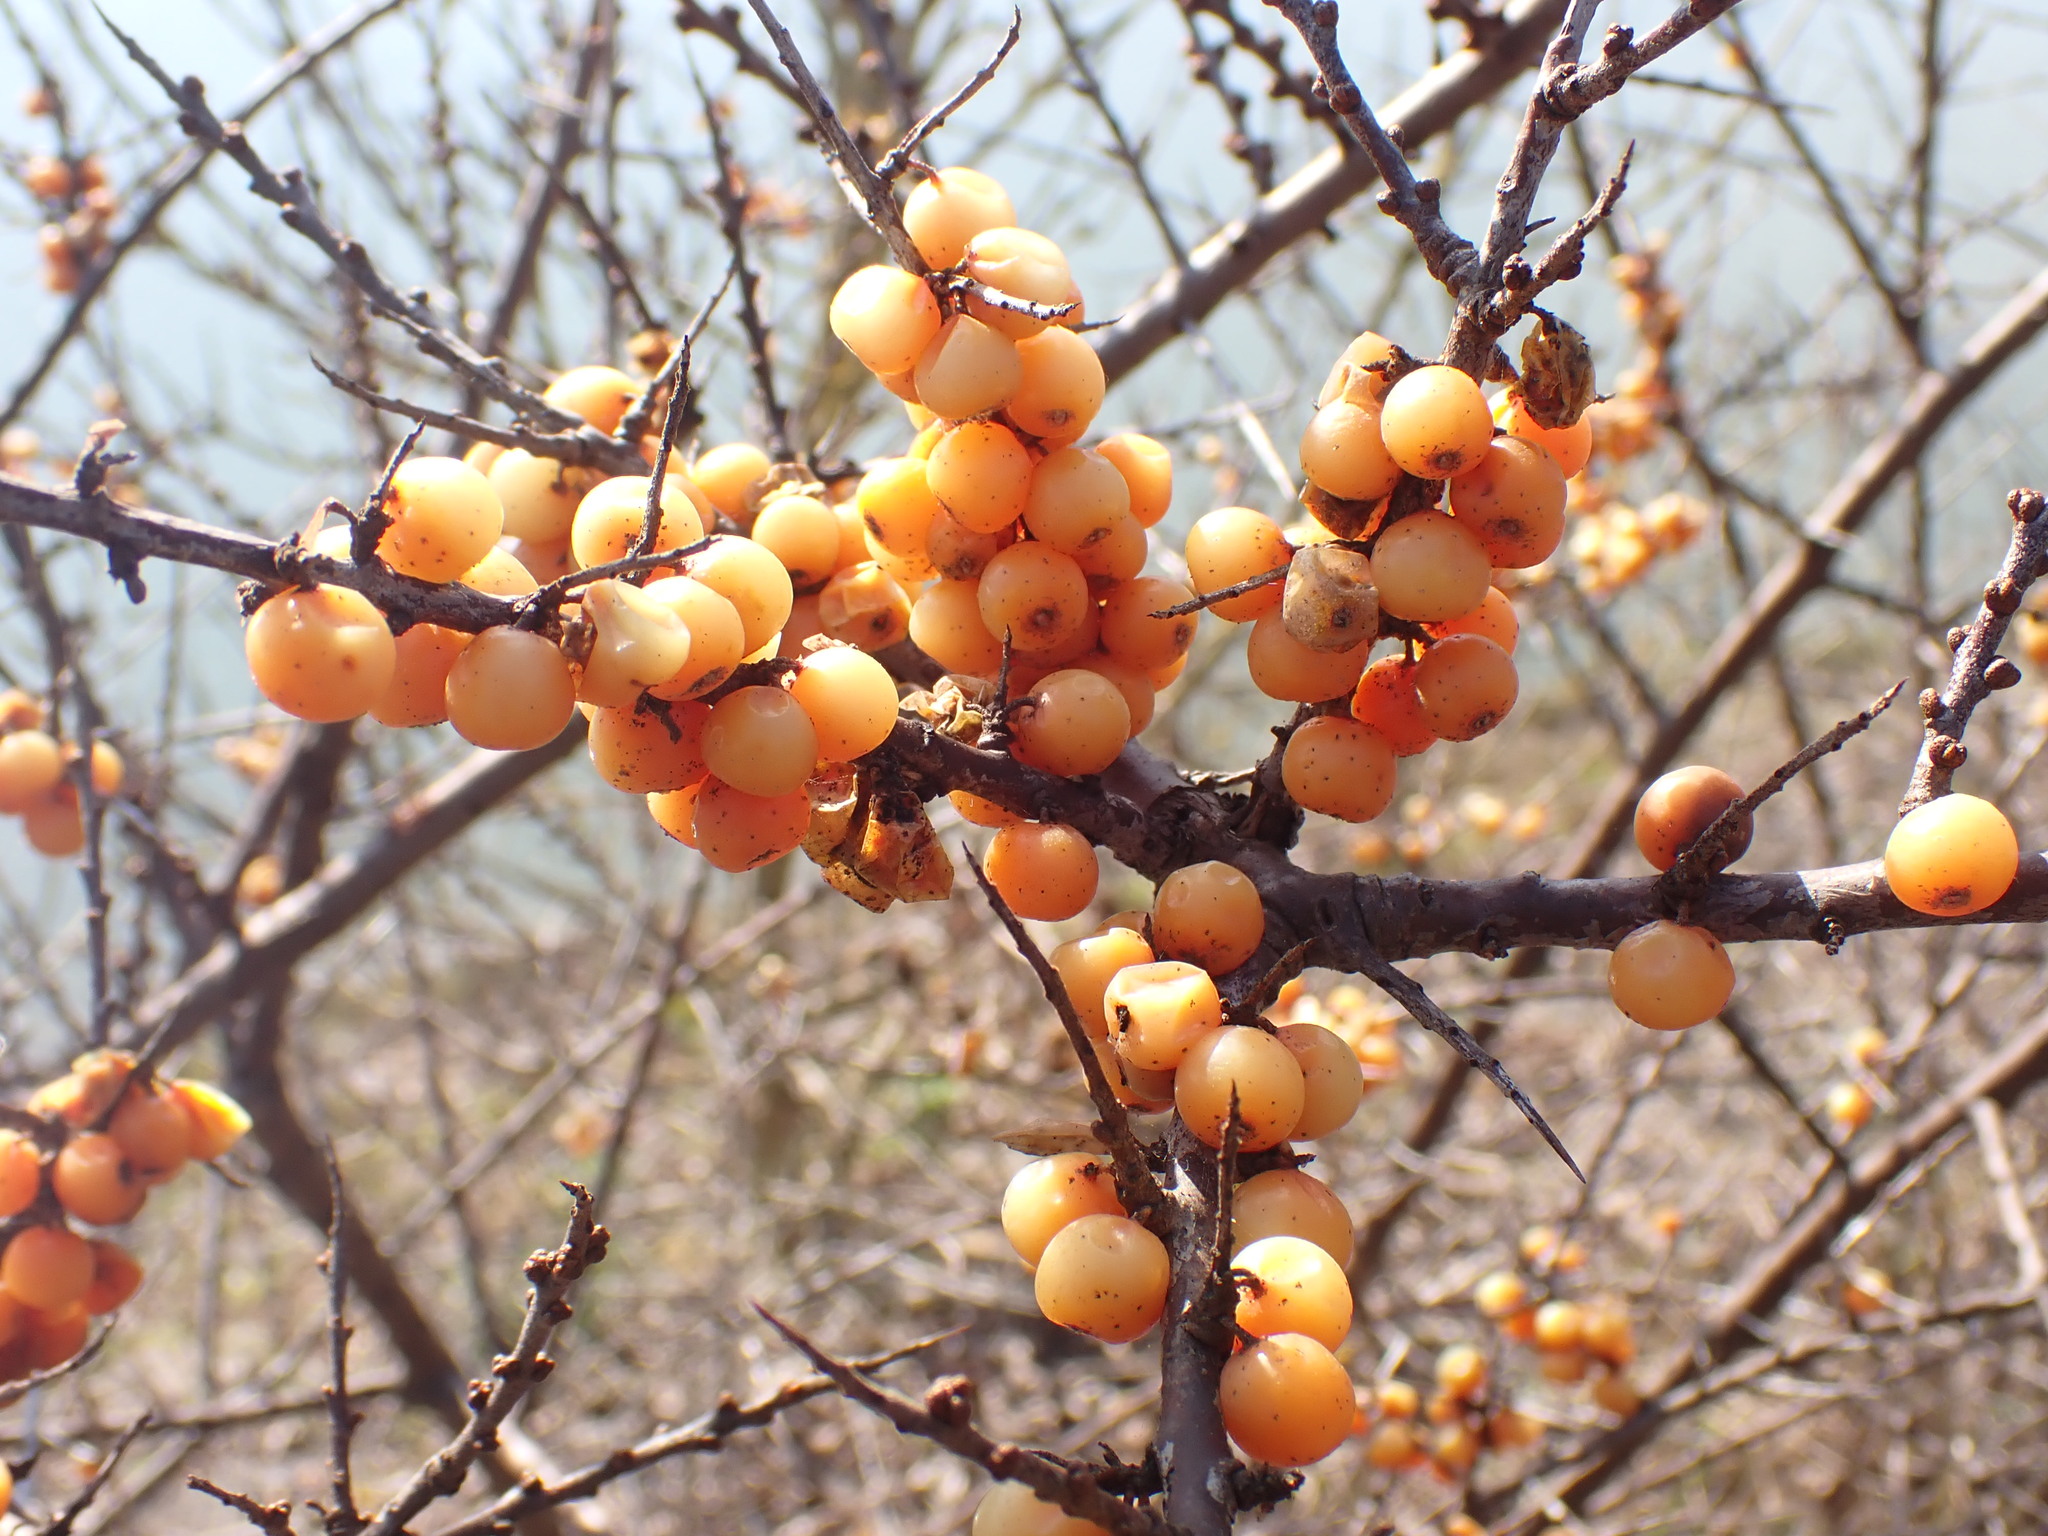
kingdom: Plantae
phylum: Tracheophyta
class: Magnoliopsida
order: Rosales
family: Elaeagnaceae
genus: Hippophae
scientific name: Hippophae rhamnoides
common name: Sea-buckthorn
